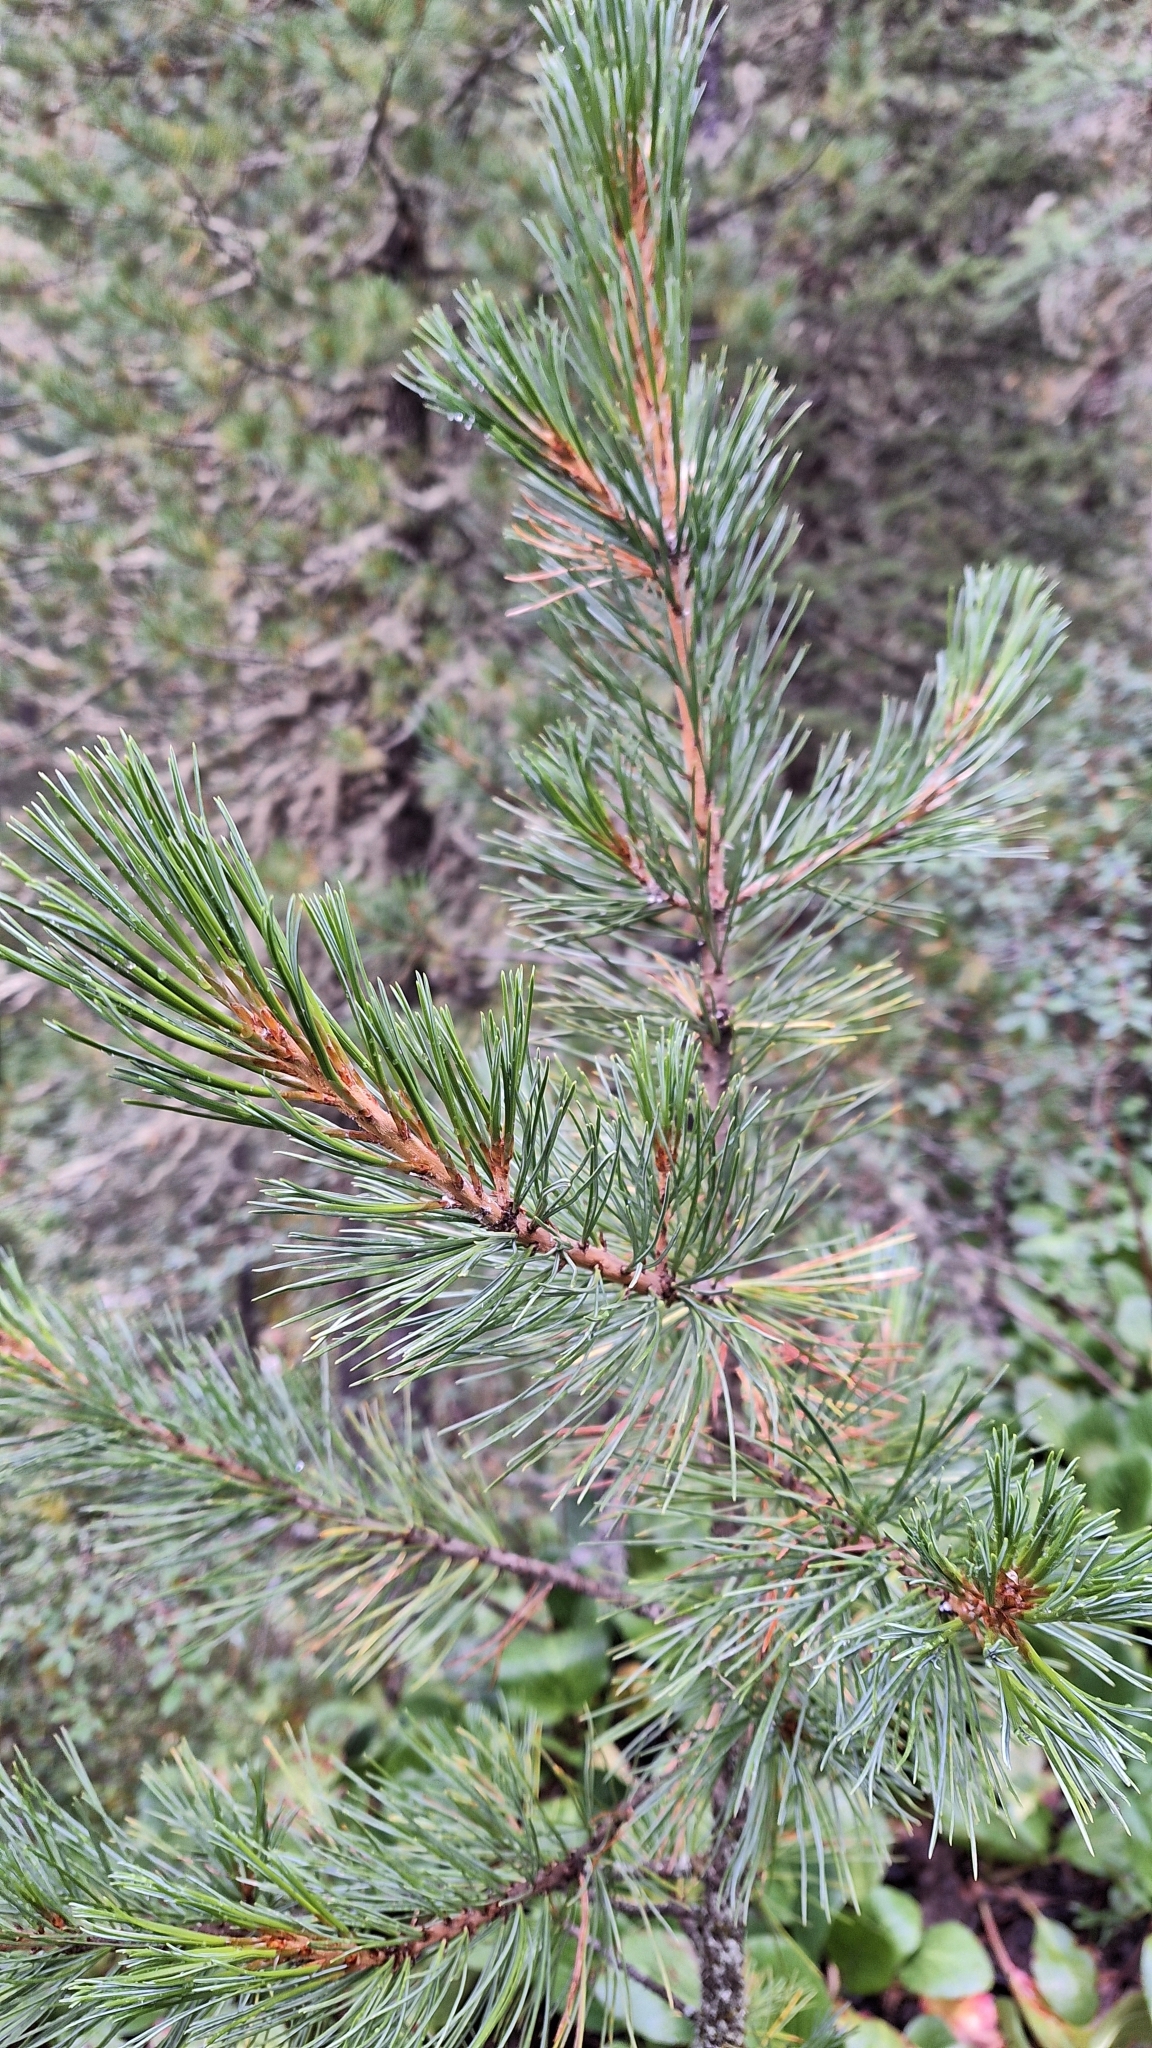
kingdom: Plantae
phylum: Tracheophyta
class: Pinopsida
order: Pinales
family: Pinaceae
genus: Pinus
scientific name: Pinus sibirica
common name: Siberian pine
